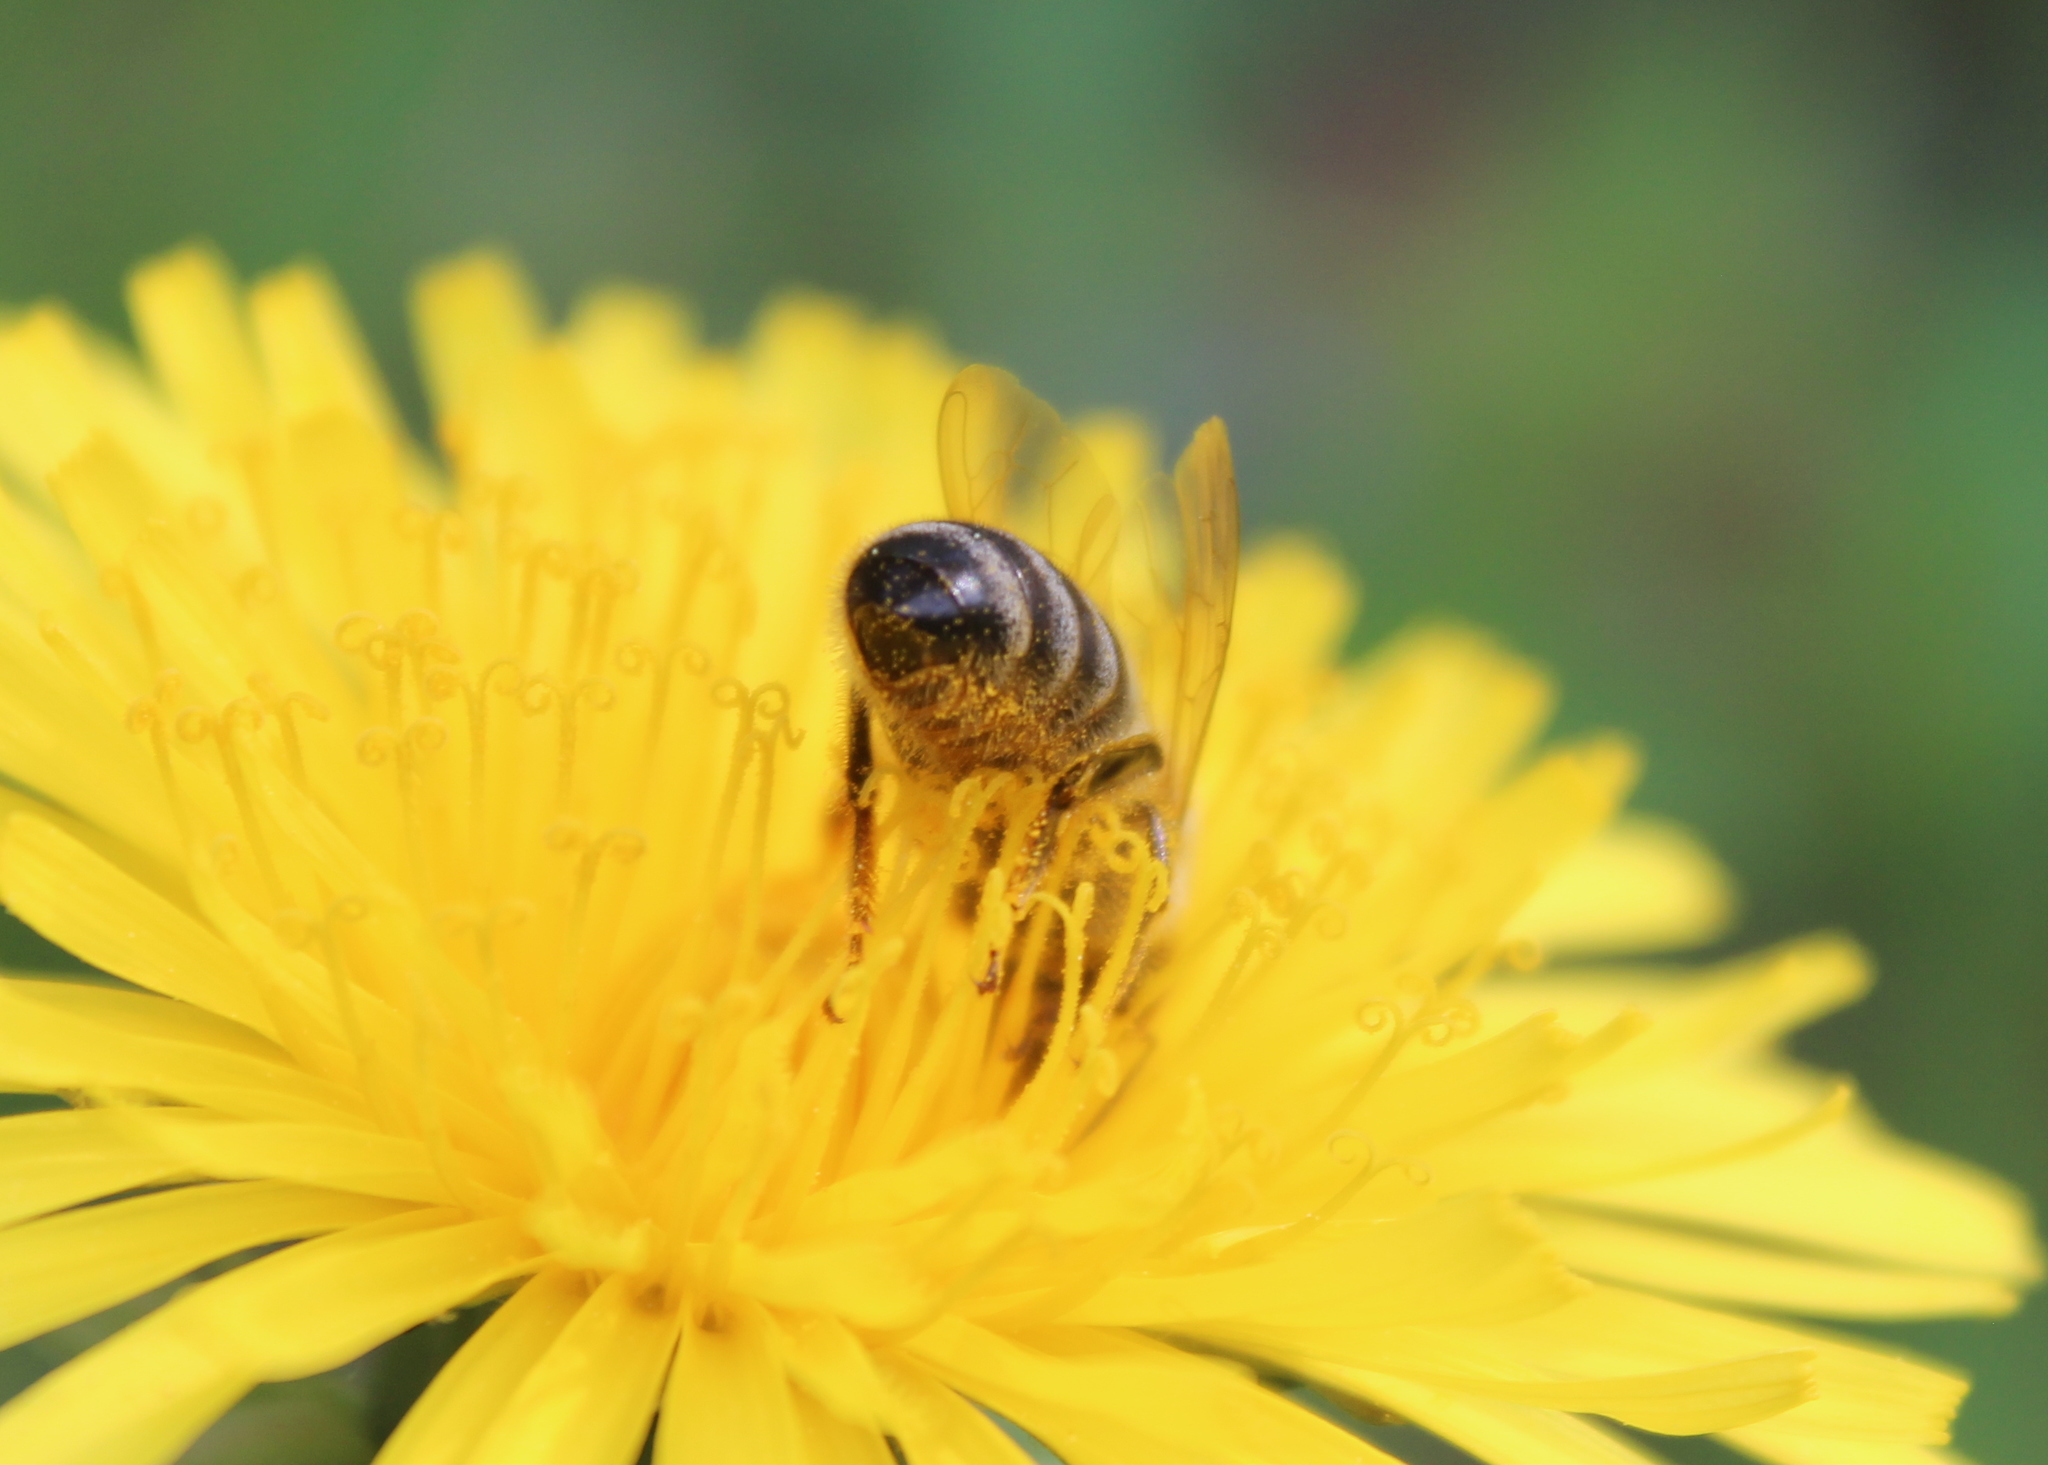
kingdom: Animalia
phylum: Arthropoda
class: Insecta
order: Hymenoptera
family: Apidae
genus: Apis
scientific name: Apis mellifera
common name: Honey bee
